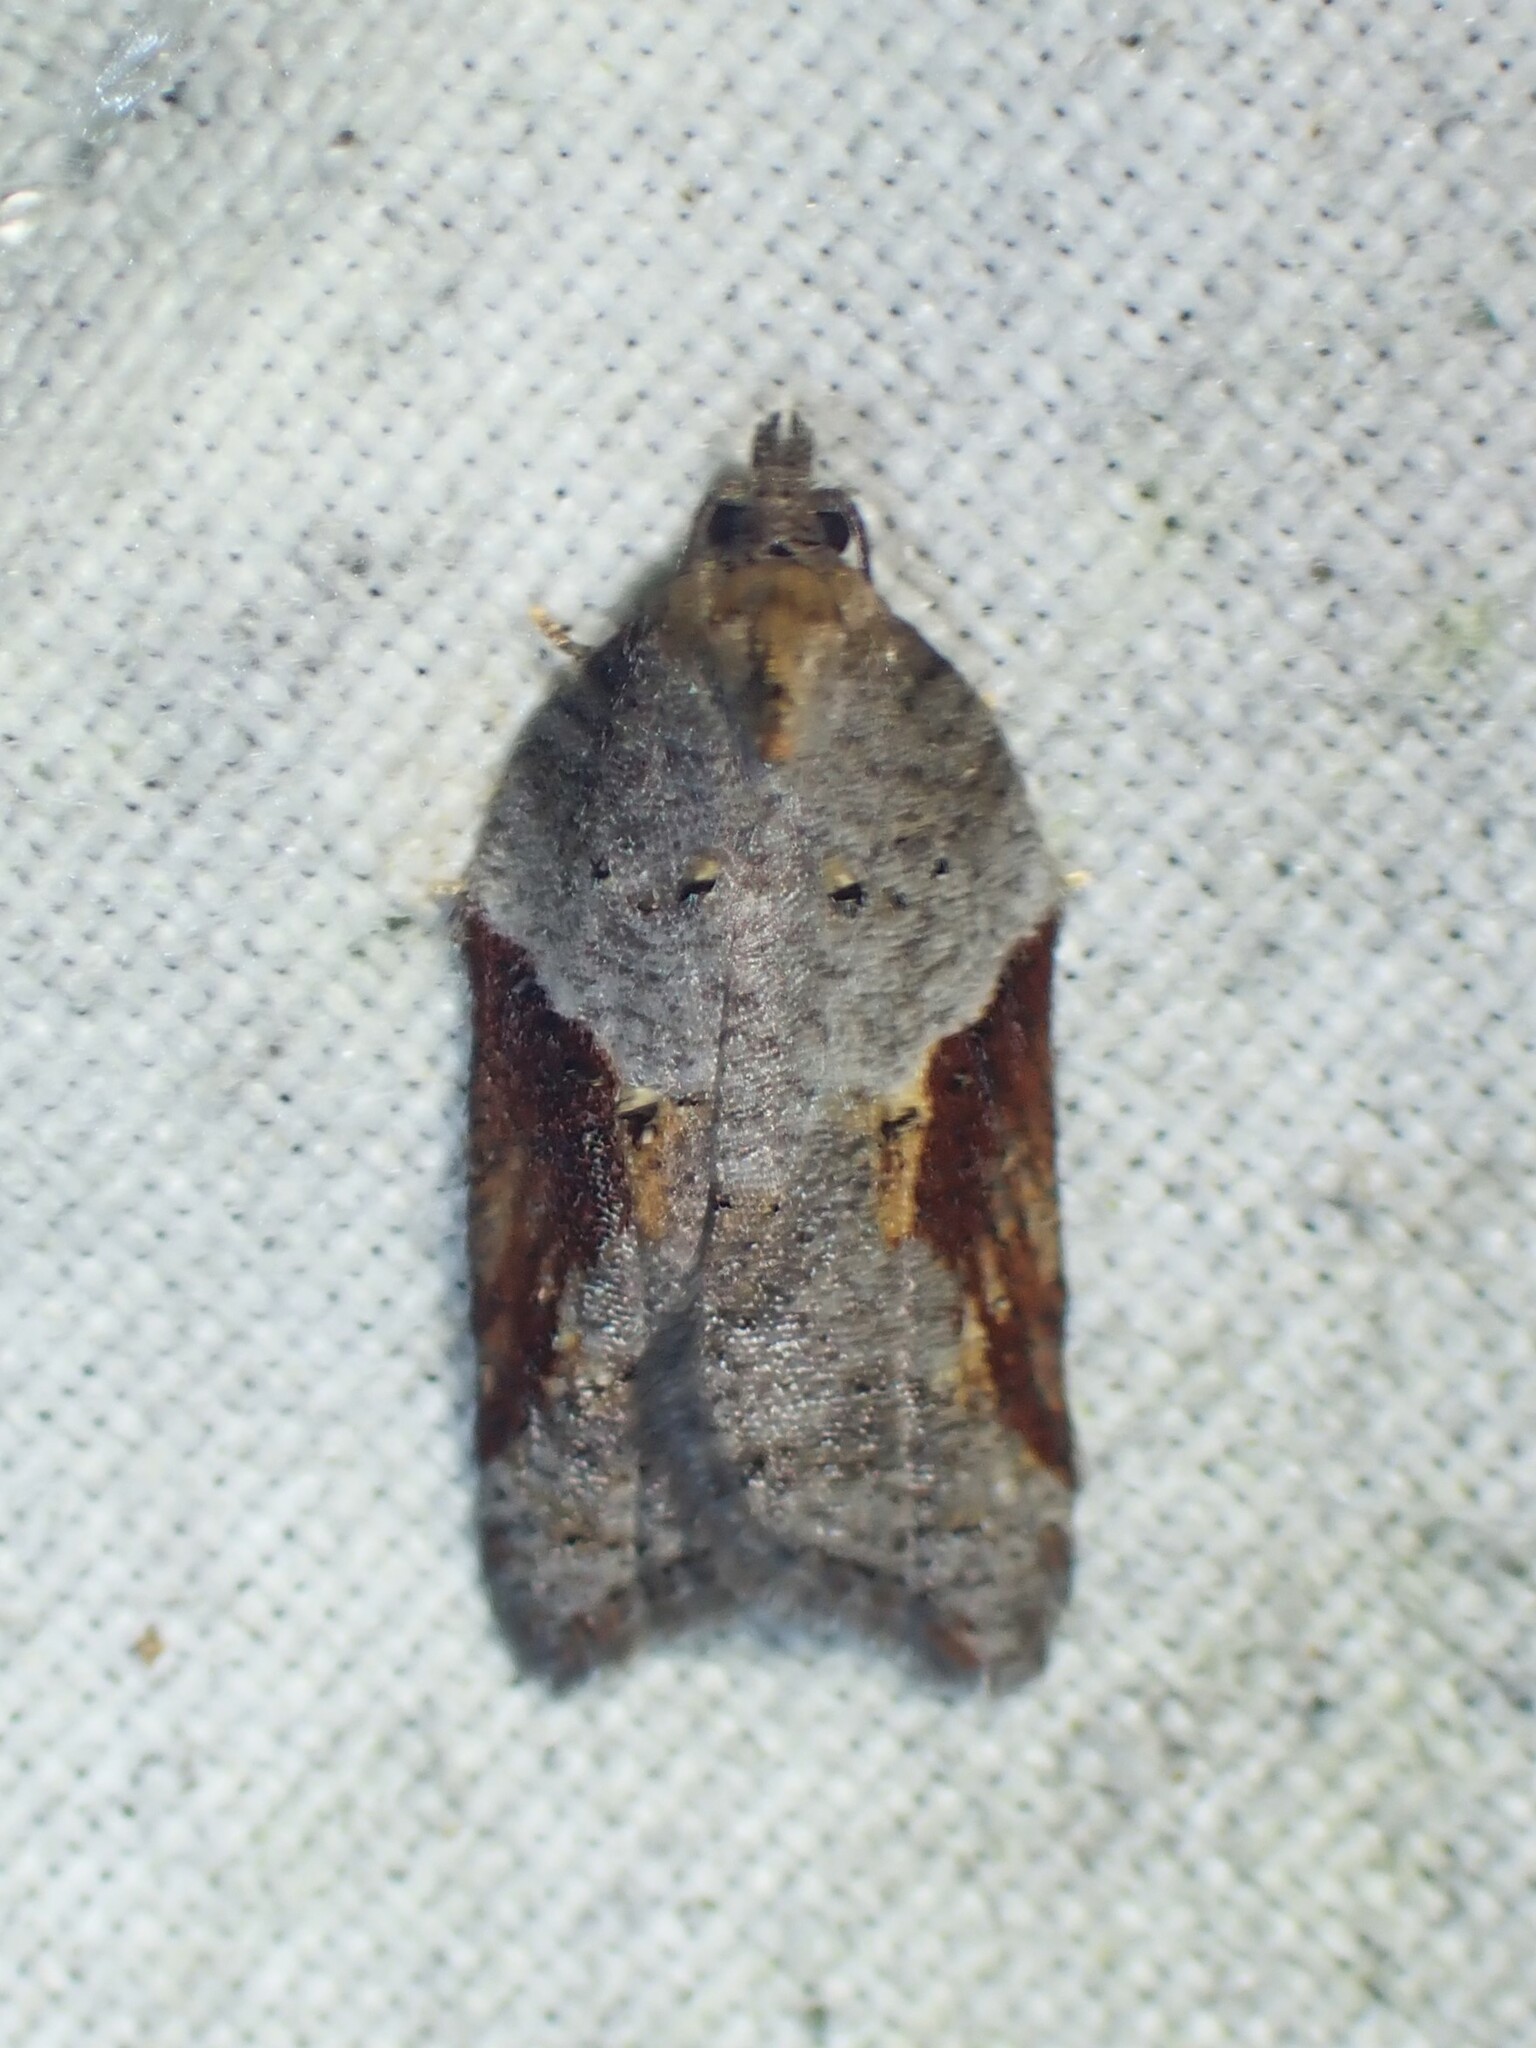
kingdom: Animalia
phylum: Arthropoda
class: Insecta
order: Lepidoptera
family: Tortricidae
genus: Acleris
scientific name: Acleris macdunnoughi
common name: Macdunnough's acleris
